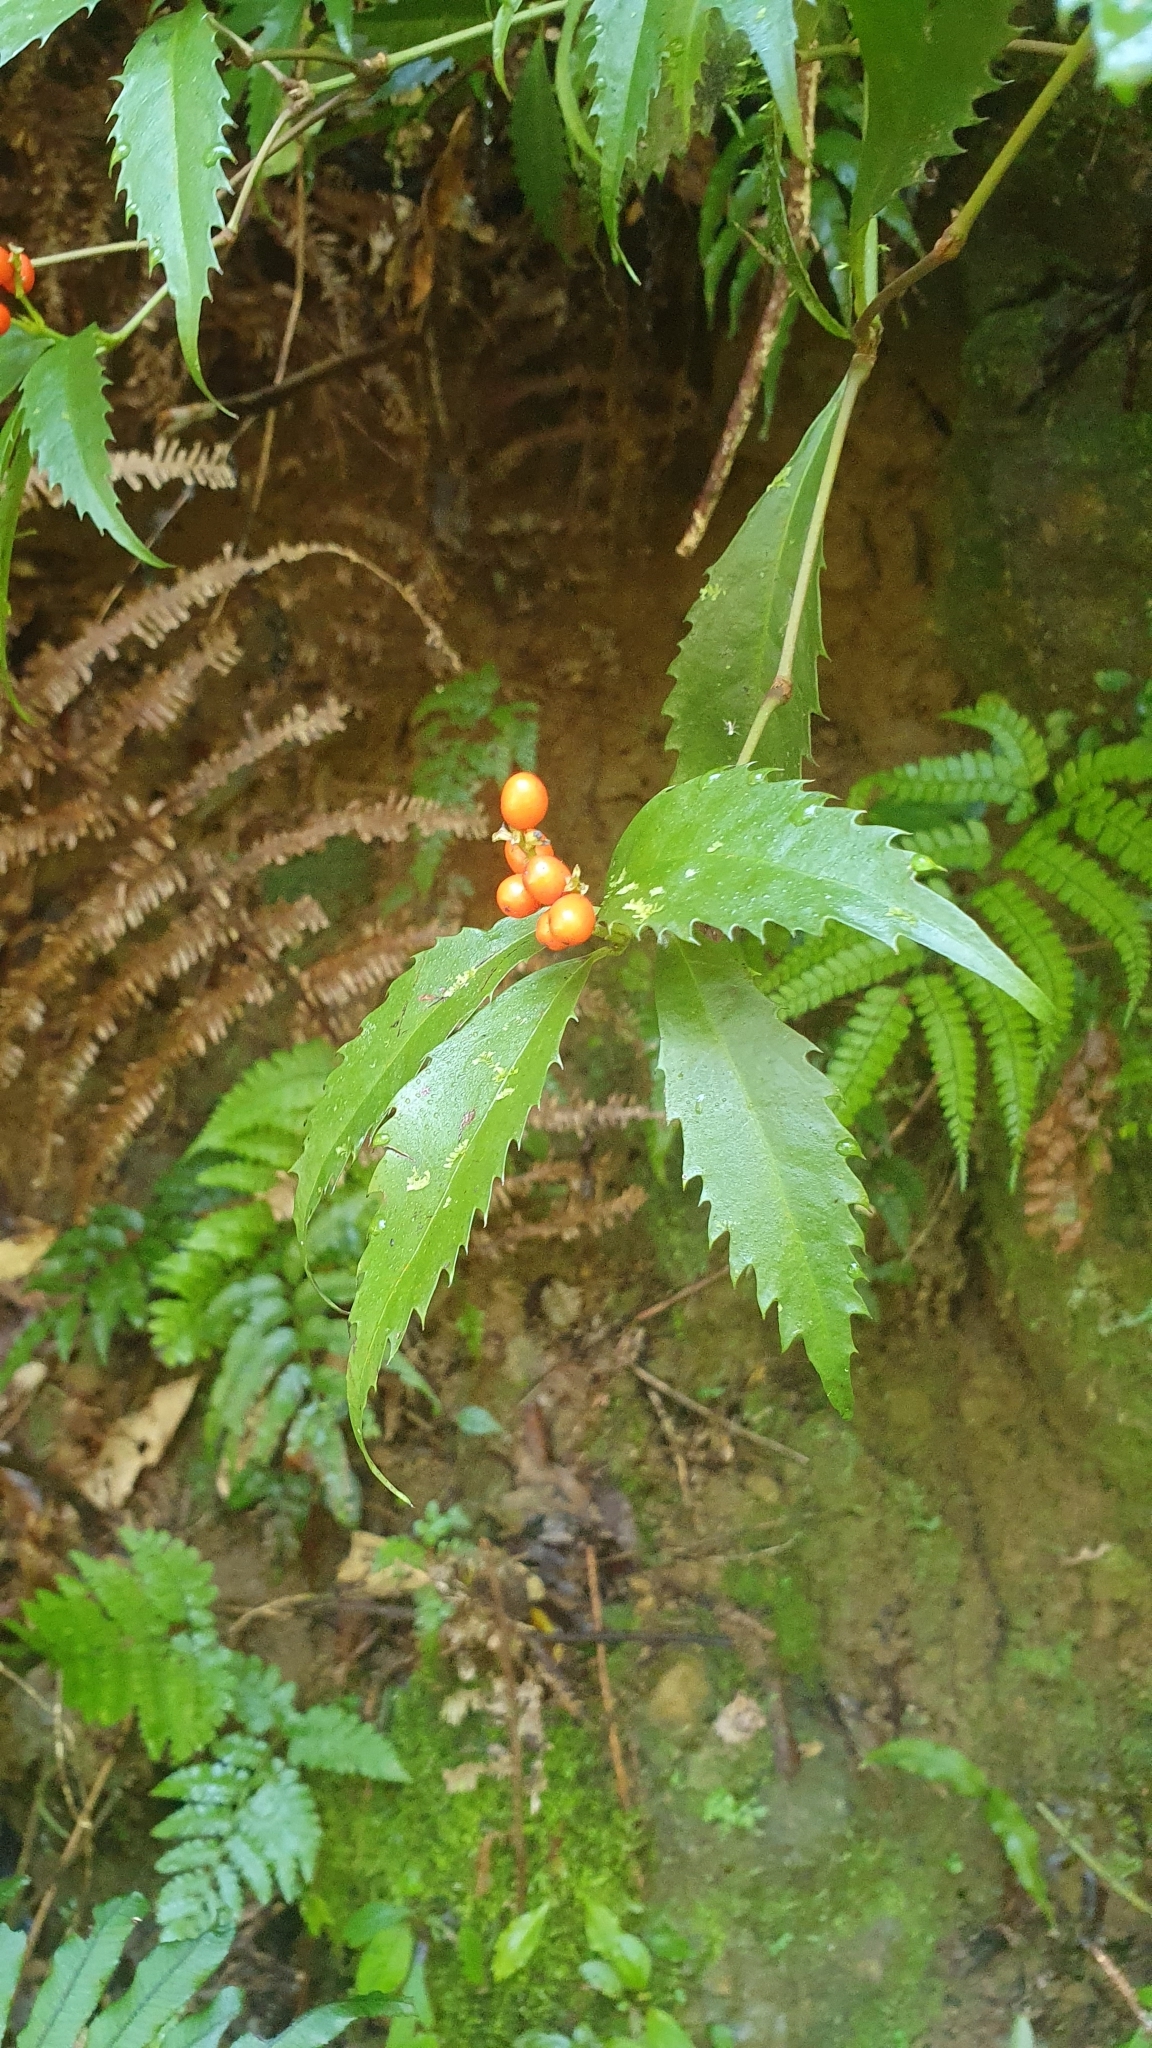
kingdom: Plantae
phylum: Tracheophyta
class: Magnoliopsida
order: Chloranthales
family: Chloranthaceae
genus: Sarcandra
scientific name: Sarcandra glabra
